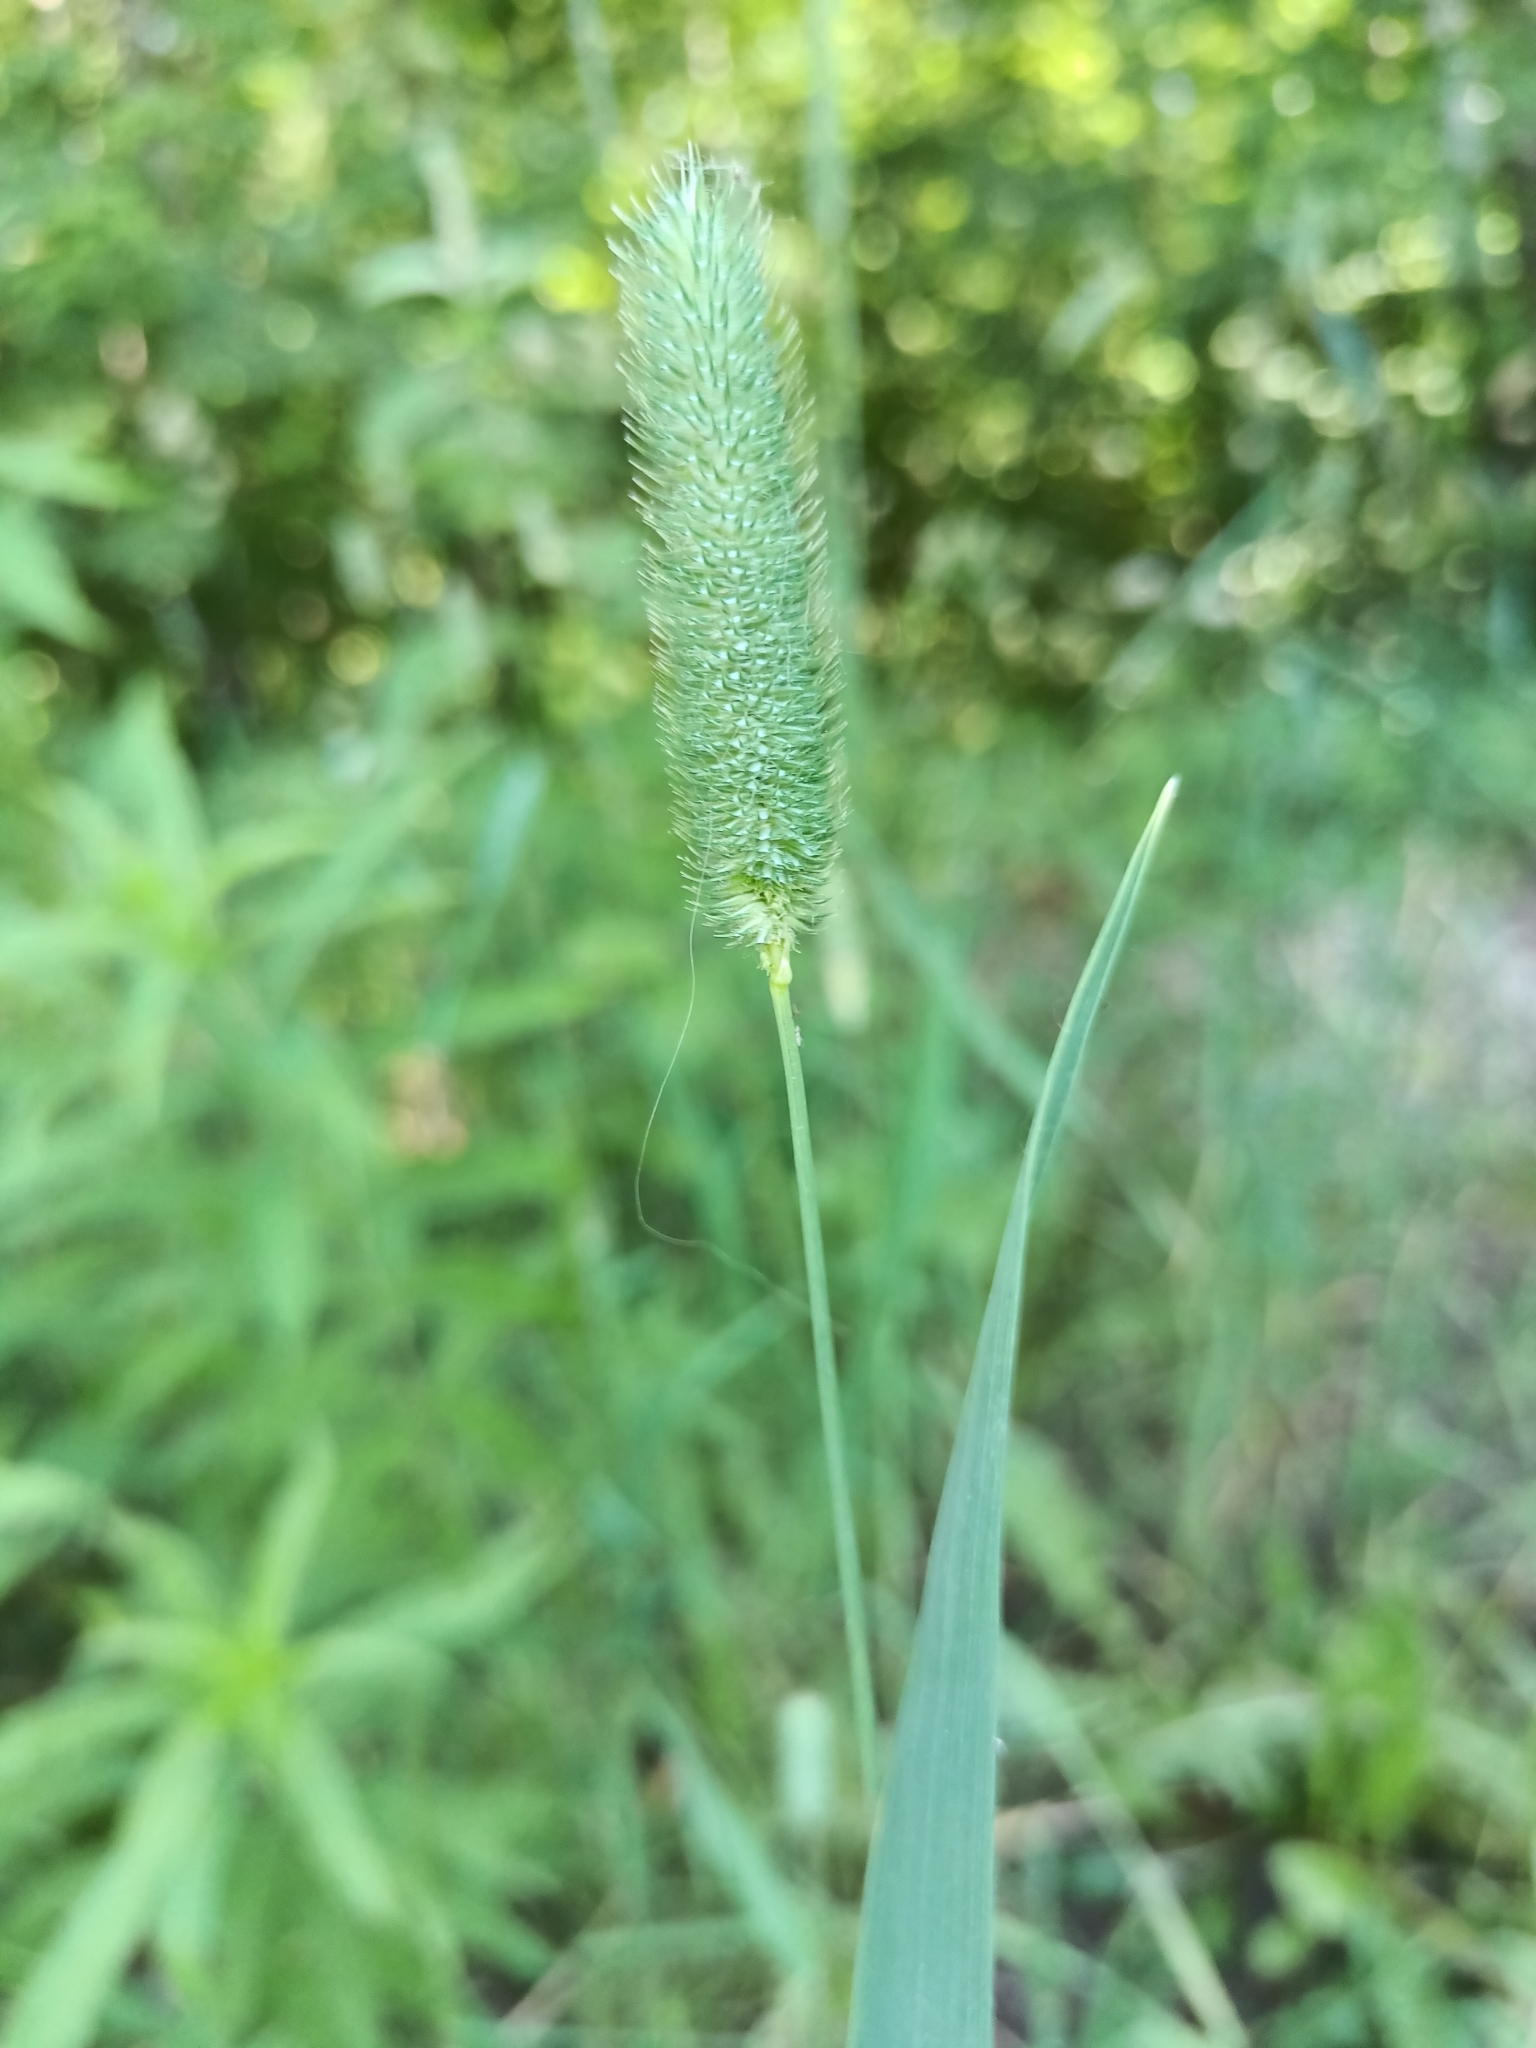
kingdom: Plantae
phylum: Tracheophyta
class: Liliopsida
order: Poales
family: Poaceae
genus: Phleum
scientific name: Phleum pratense
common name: Timothy grass
